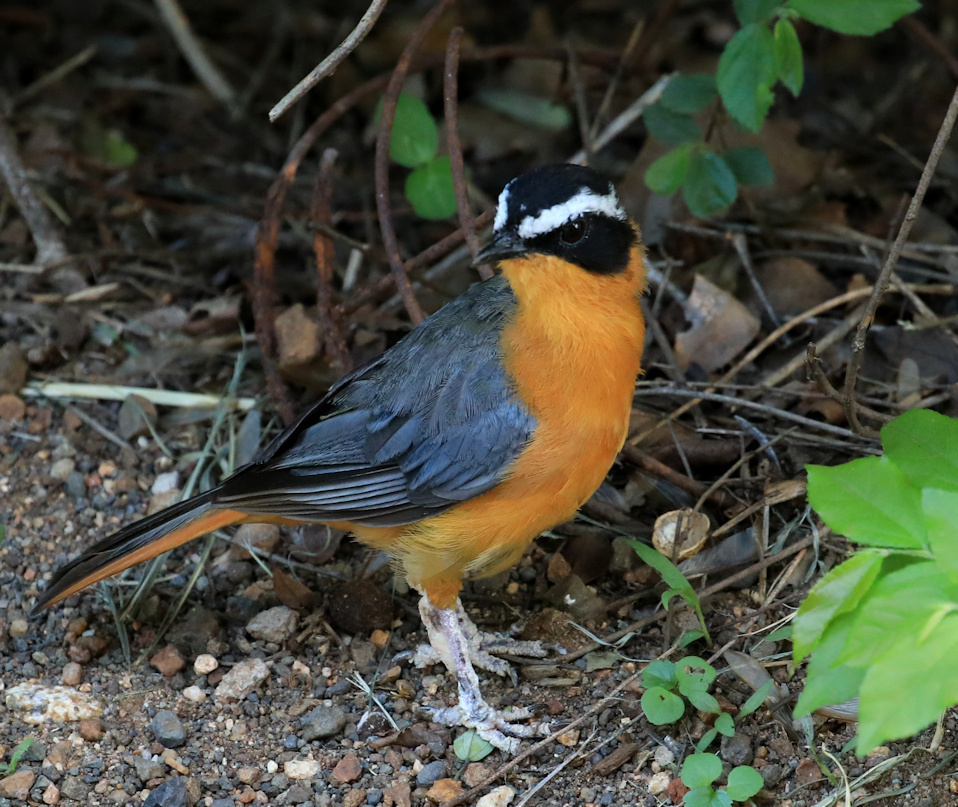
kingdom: Animalia
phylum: Chordata
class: Aves
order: Passeriformes
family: Muscicapidae
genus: Cossypha
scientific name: Cossypha heuglini
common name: White-browed robin-chat
